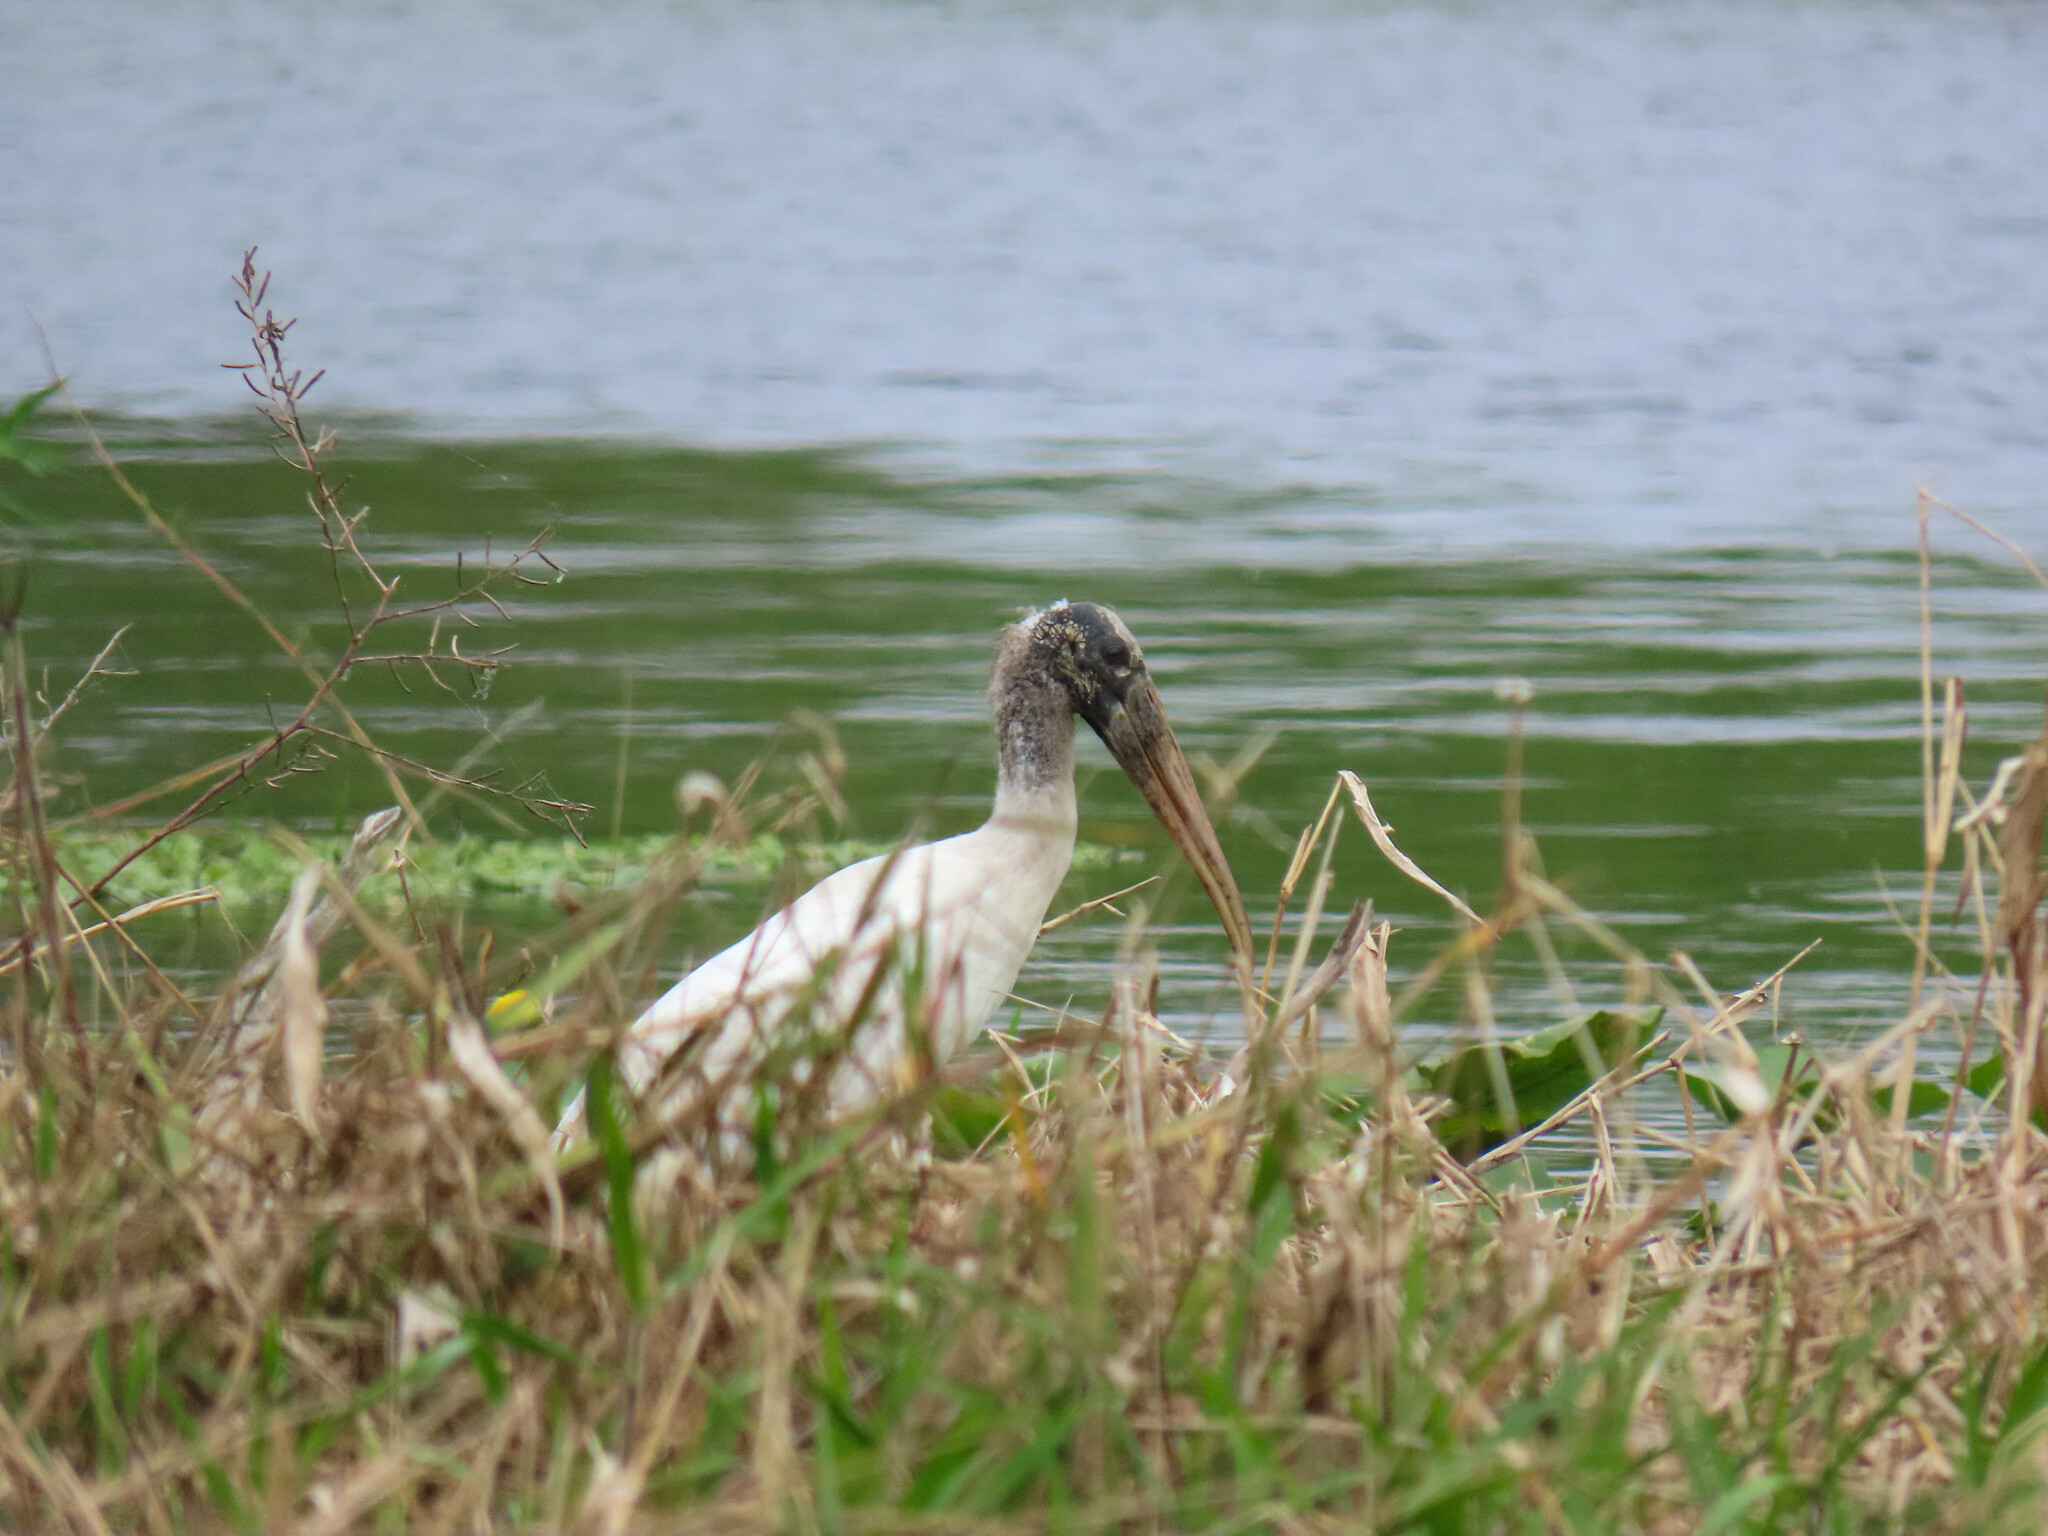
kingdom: Animalia
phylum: Chordata
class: Aves
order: Ciconiiformes
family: Ciconiidae
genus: Mycteria
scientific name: Mycteria americana
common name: Wood stork
